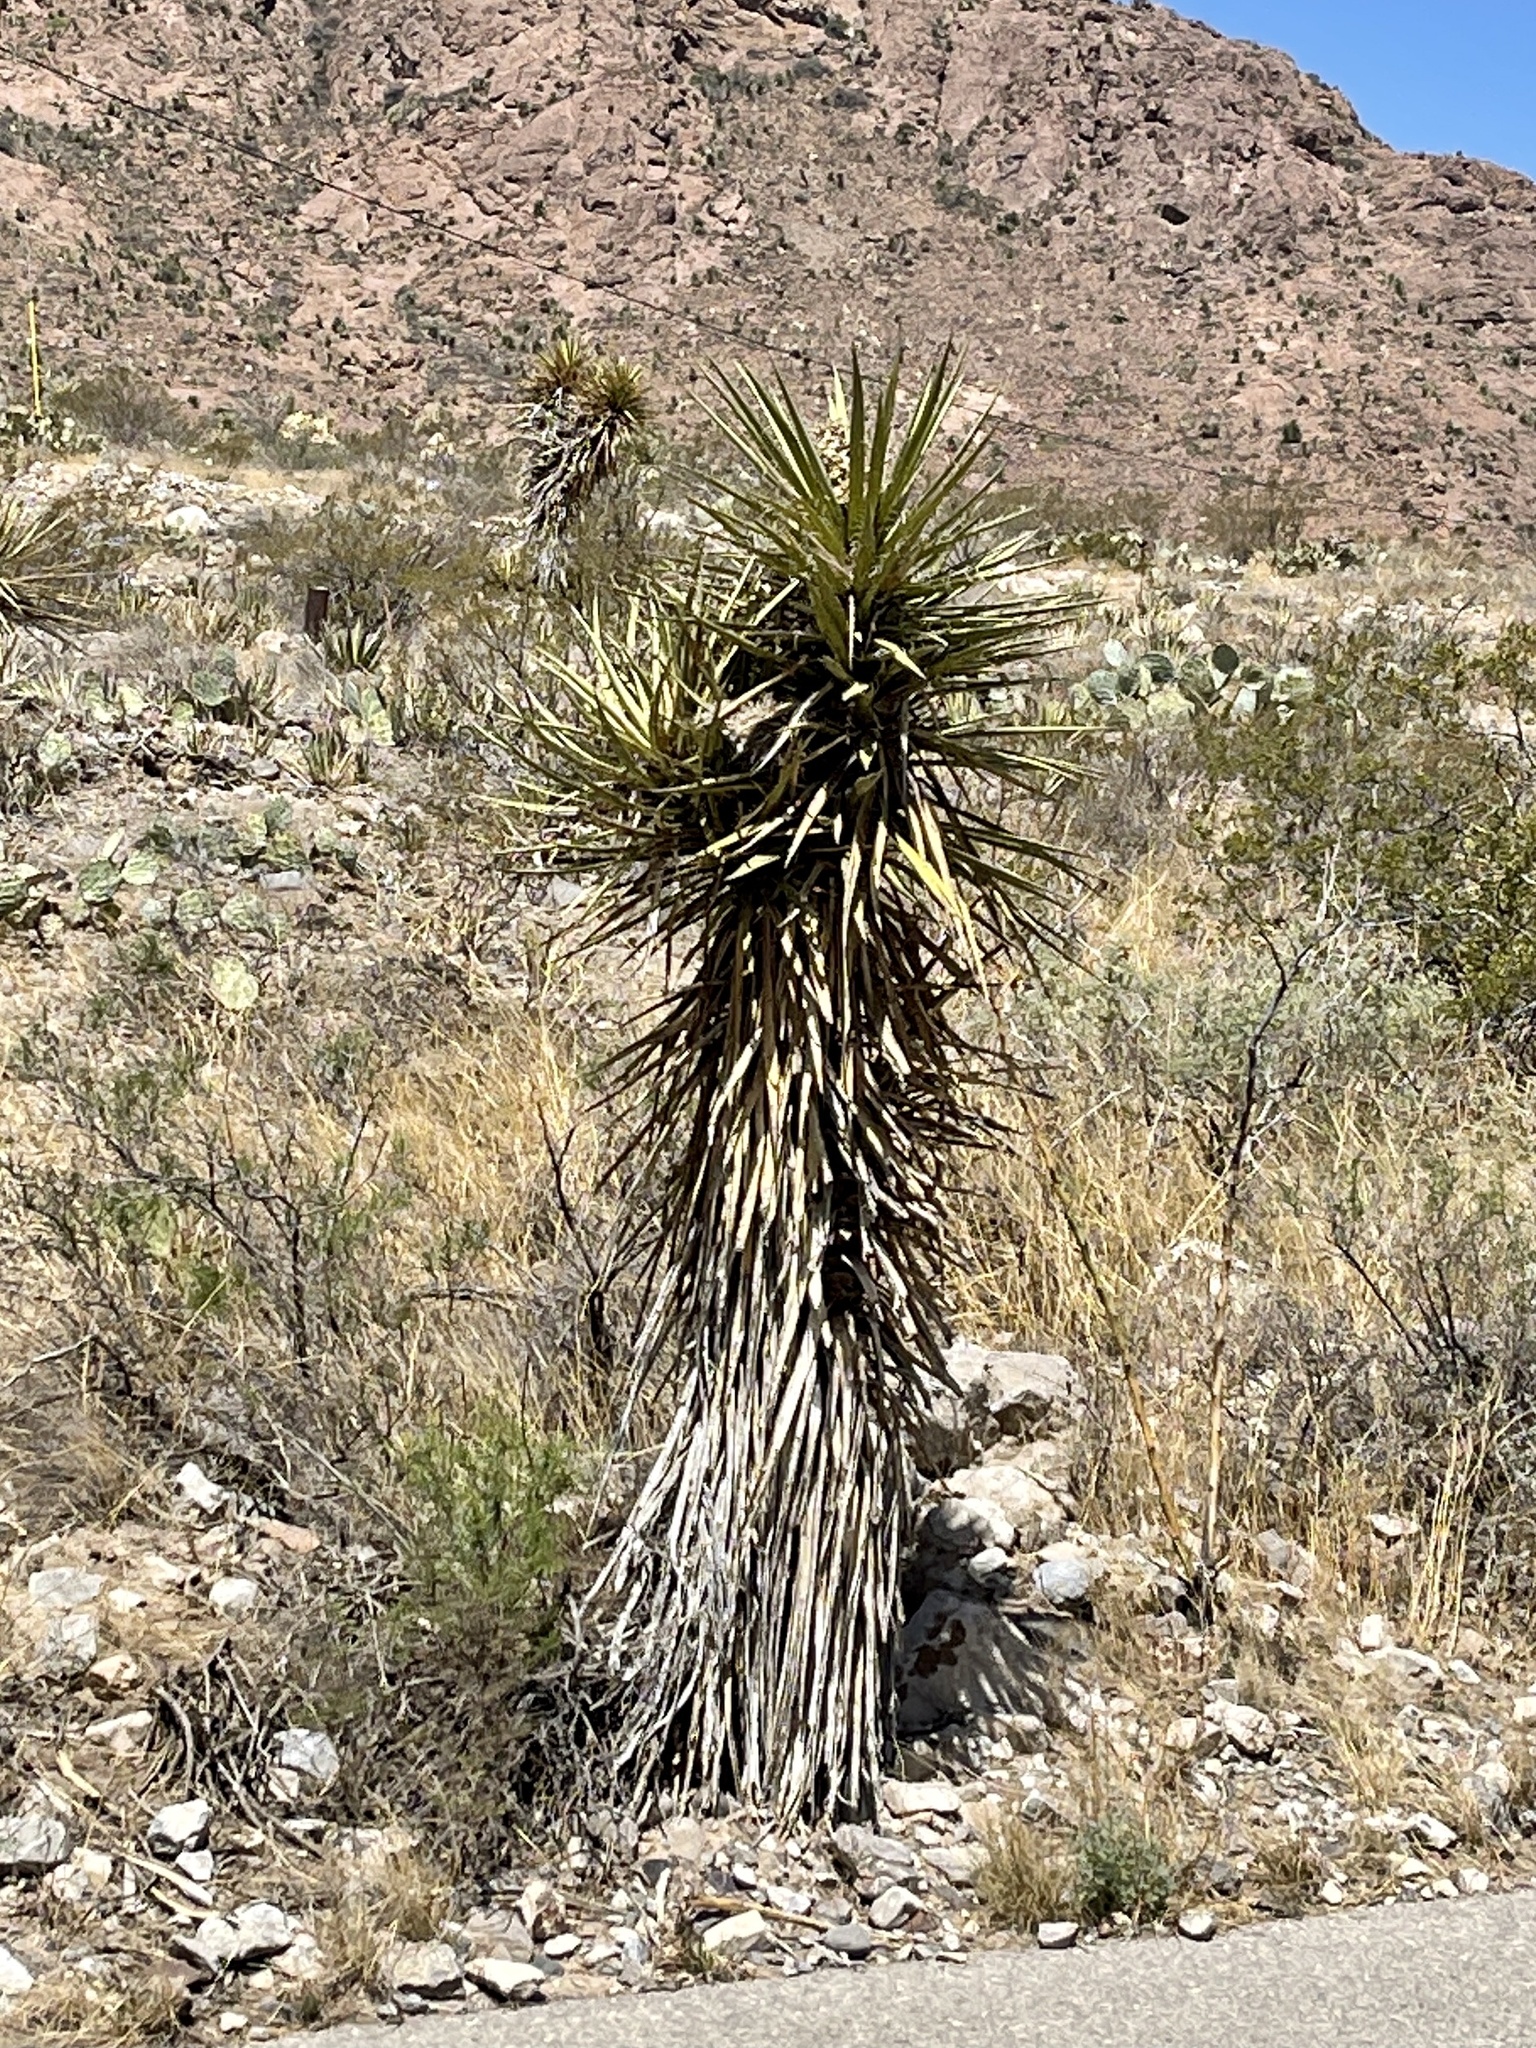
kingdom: Plantae
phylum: Tracheophyta
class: Liliopsida
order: Asparagales
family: Asparagaceae
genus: Yucca
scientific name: Yucca treculiana
